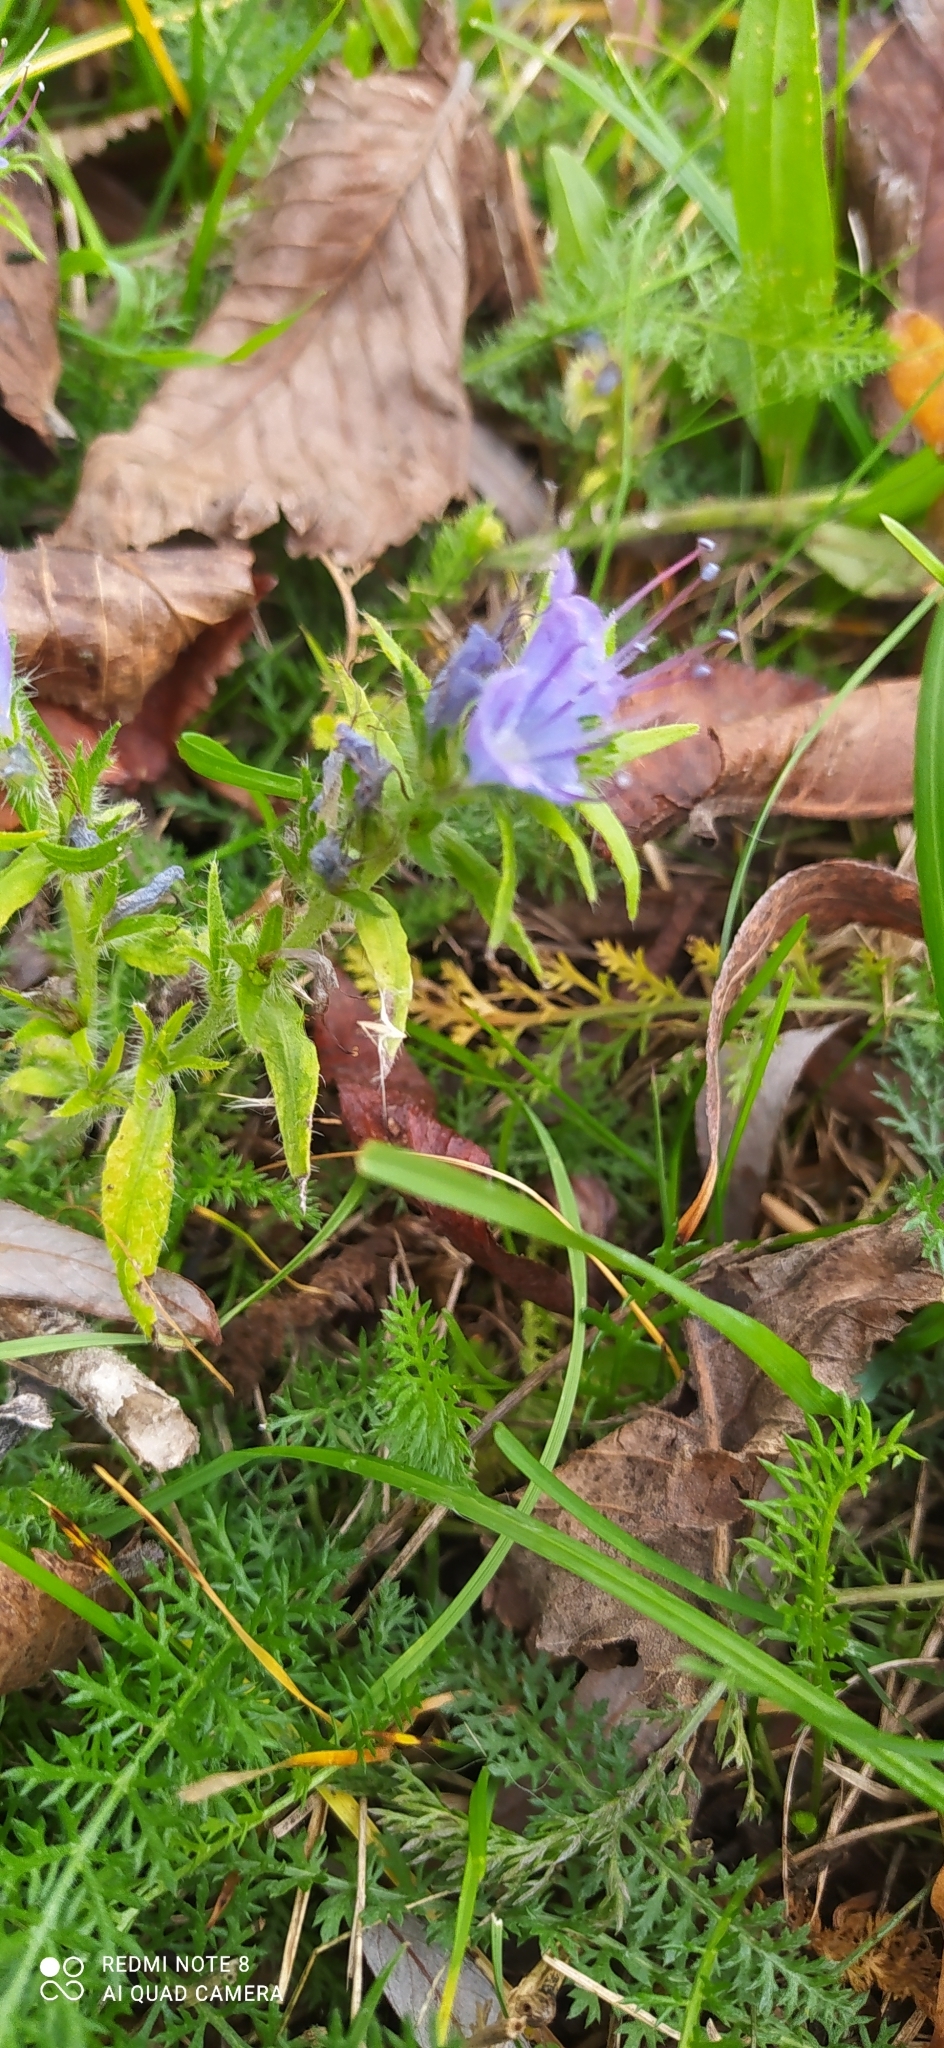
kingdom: Plantae
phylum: Tracheophyta
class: Magnoliopsida
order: Boraginales
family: Boraginaceae
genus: Echium
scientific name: Echium vulgare
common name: Common viper's bugloss
